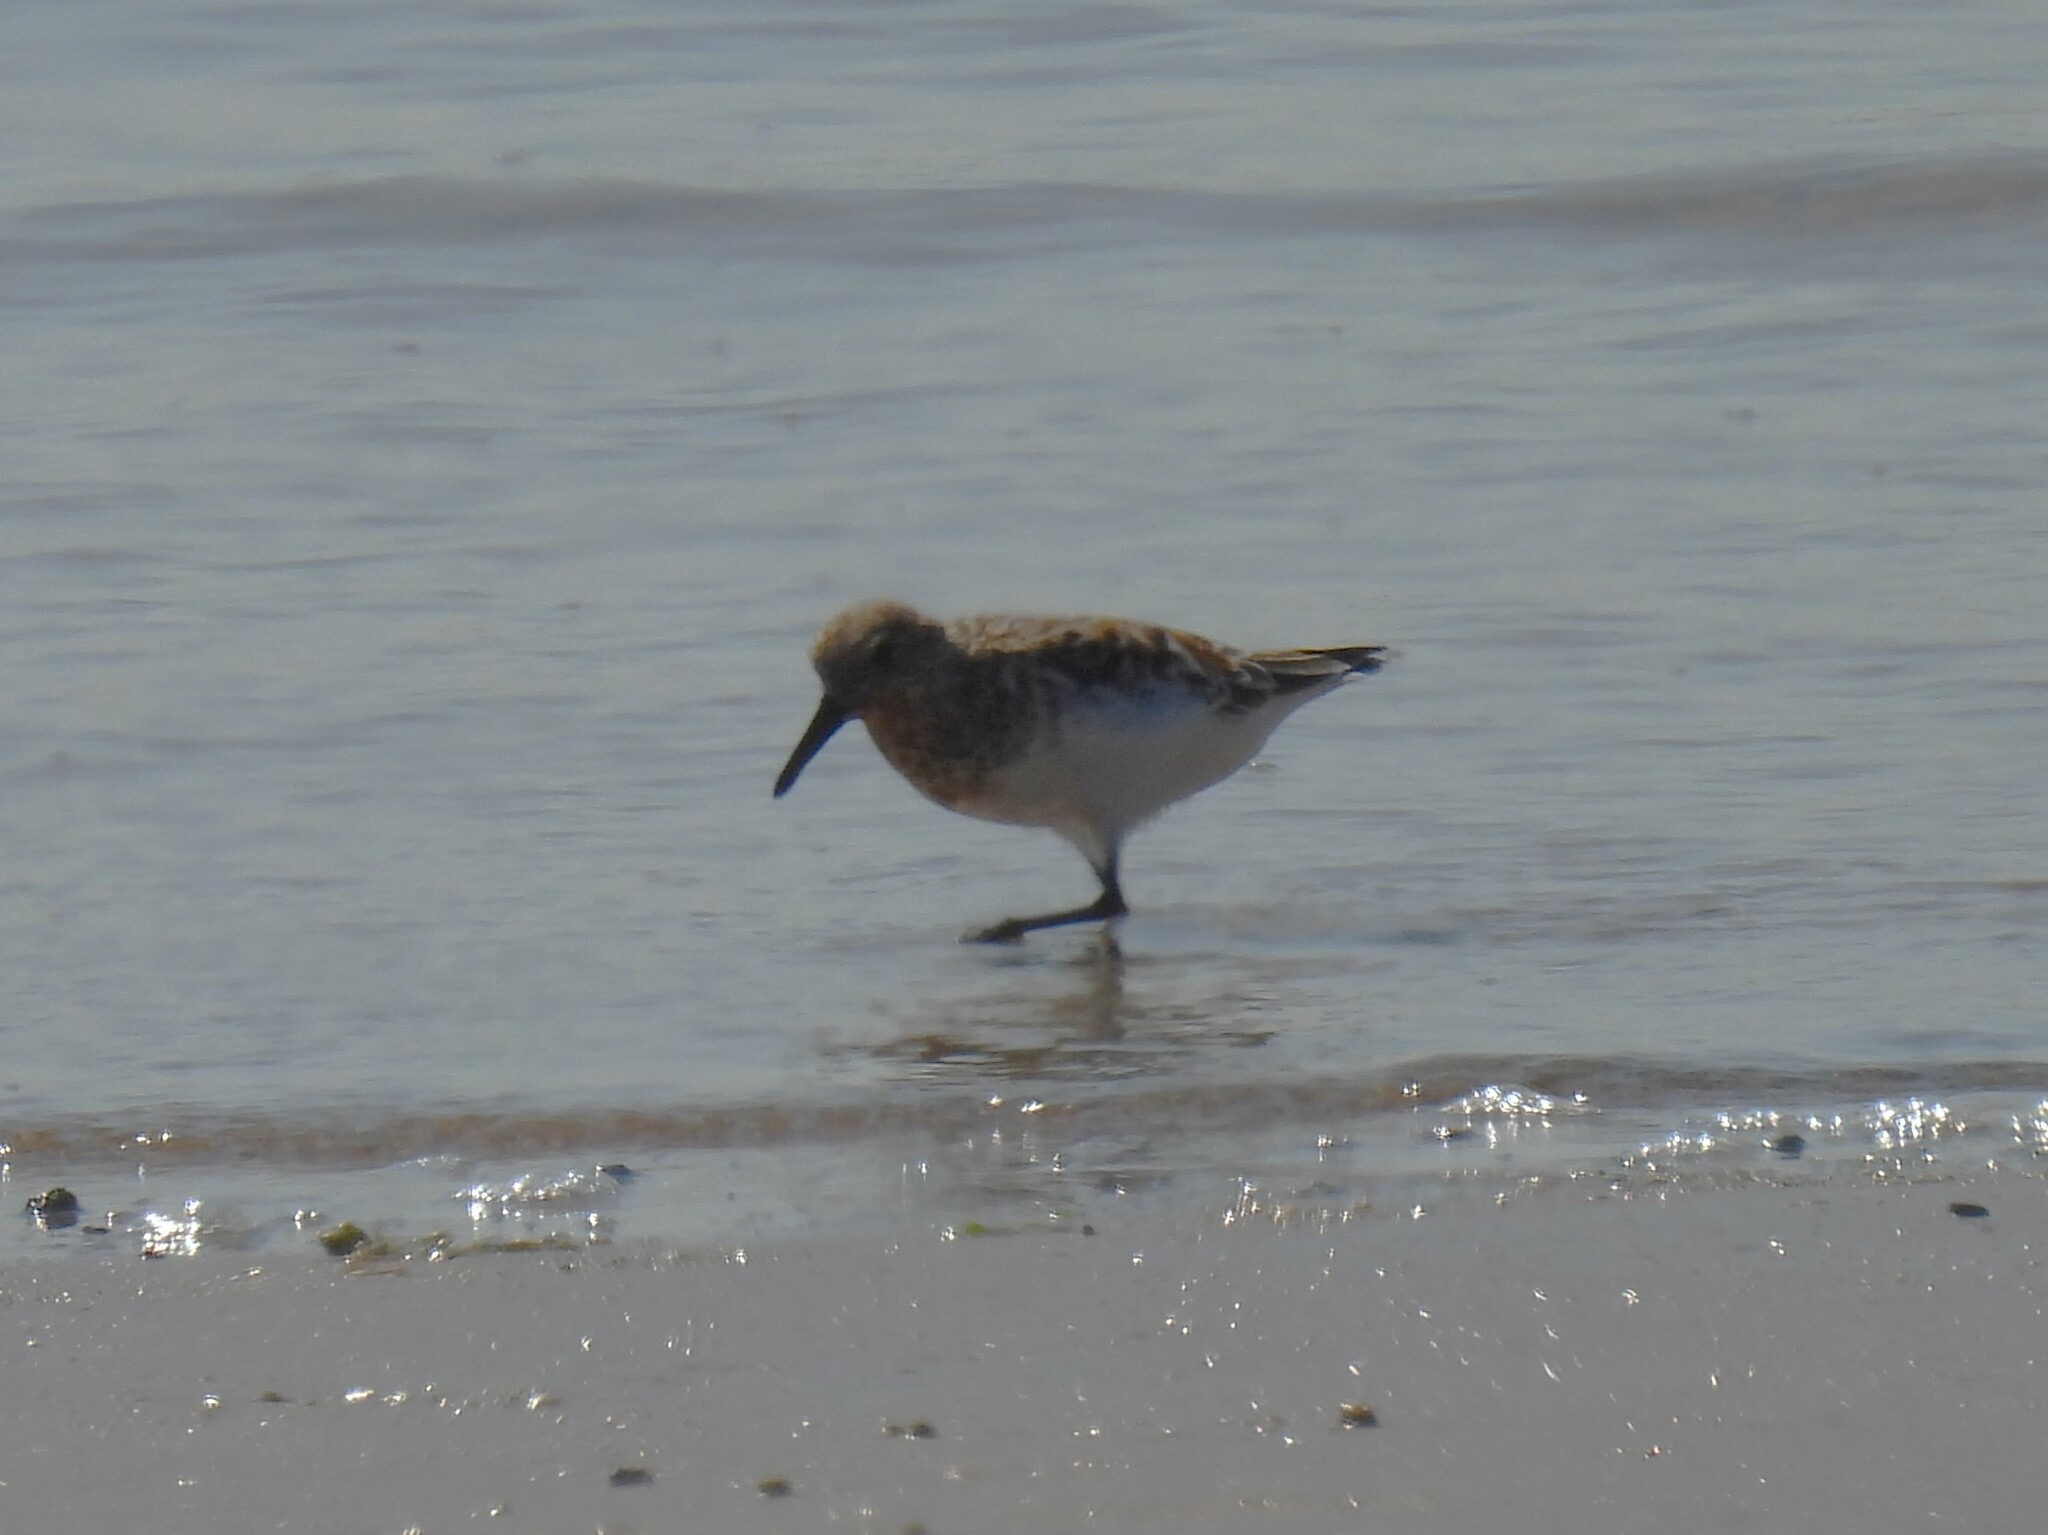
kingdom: Animalia
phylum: Chordata
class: Aves
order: Charadriiformes
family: Scolopacidae
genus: Calidris
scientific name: Calidris alba
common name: Sanderling
